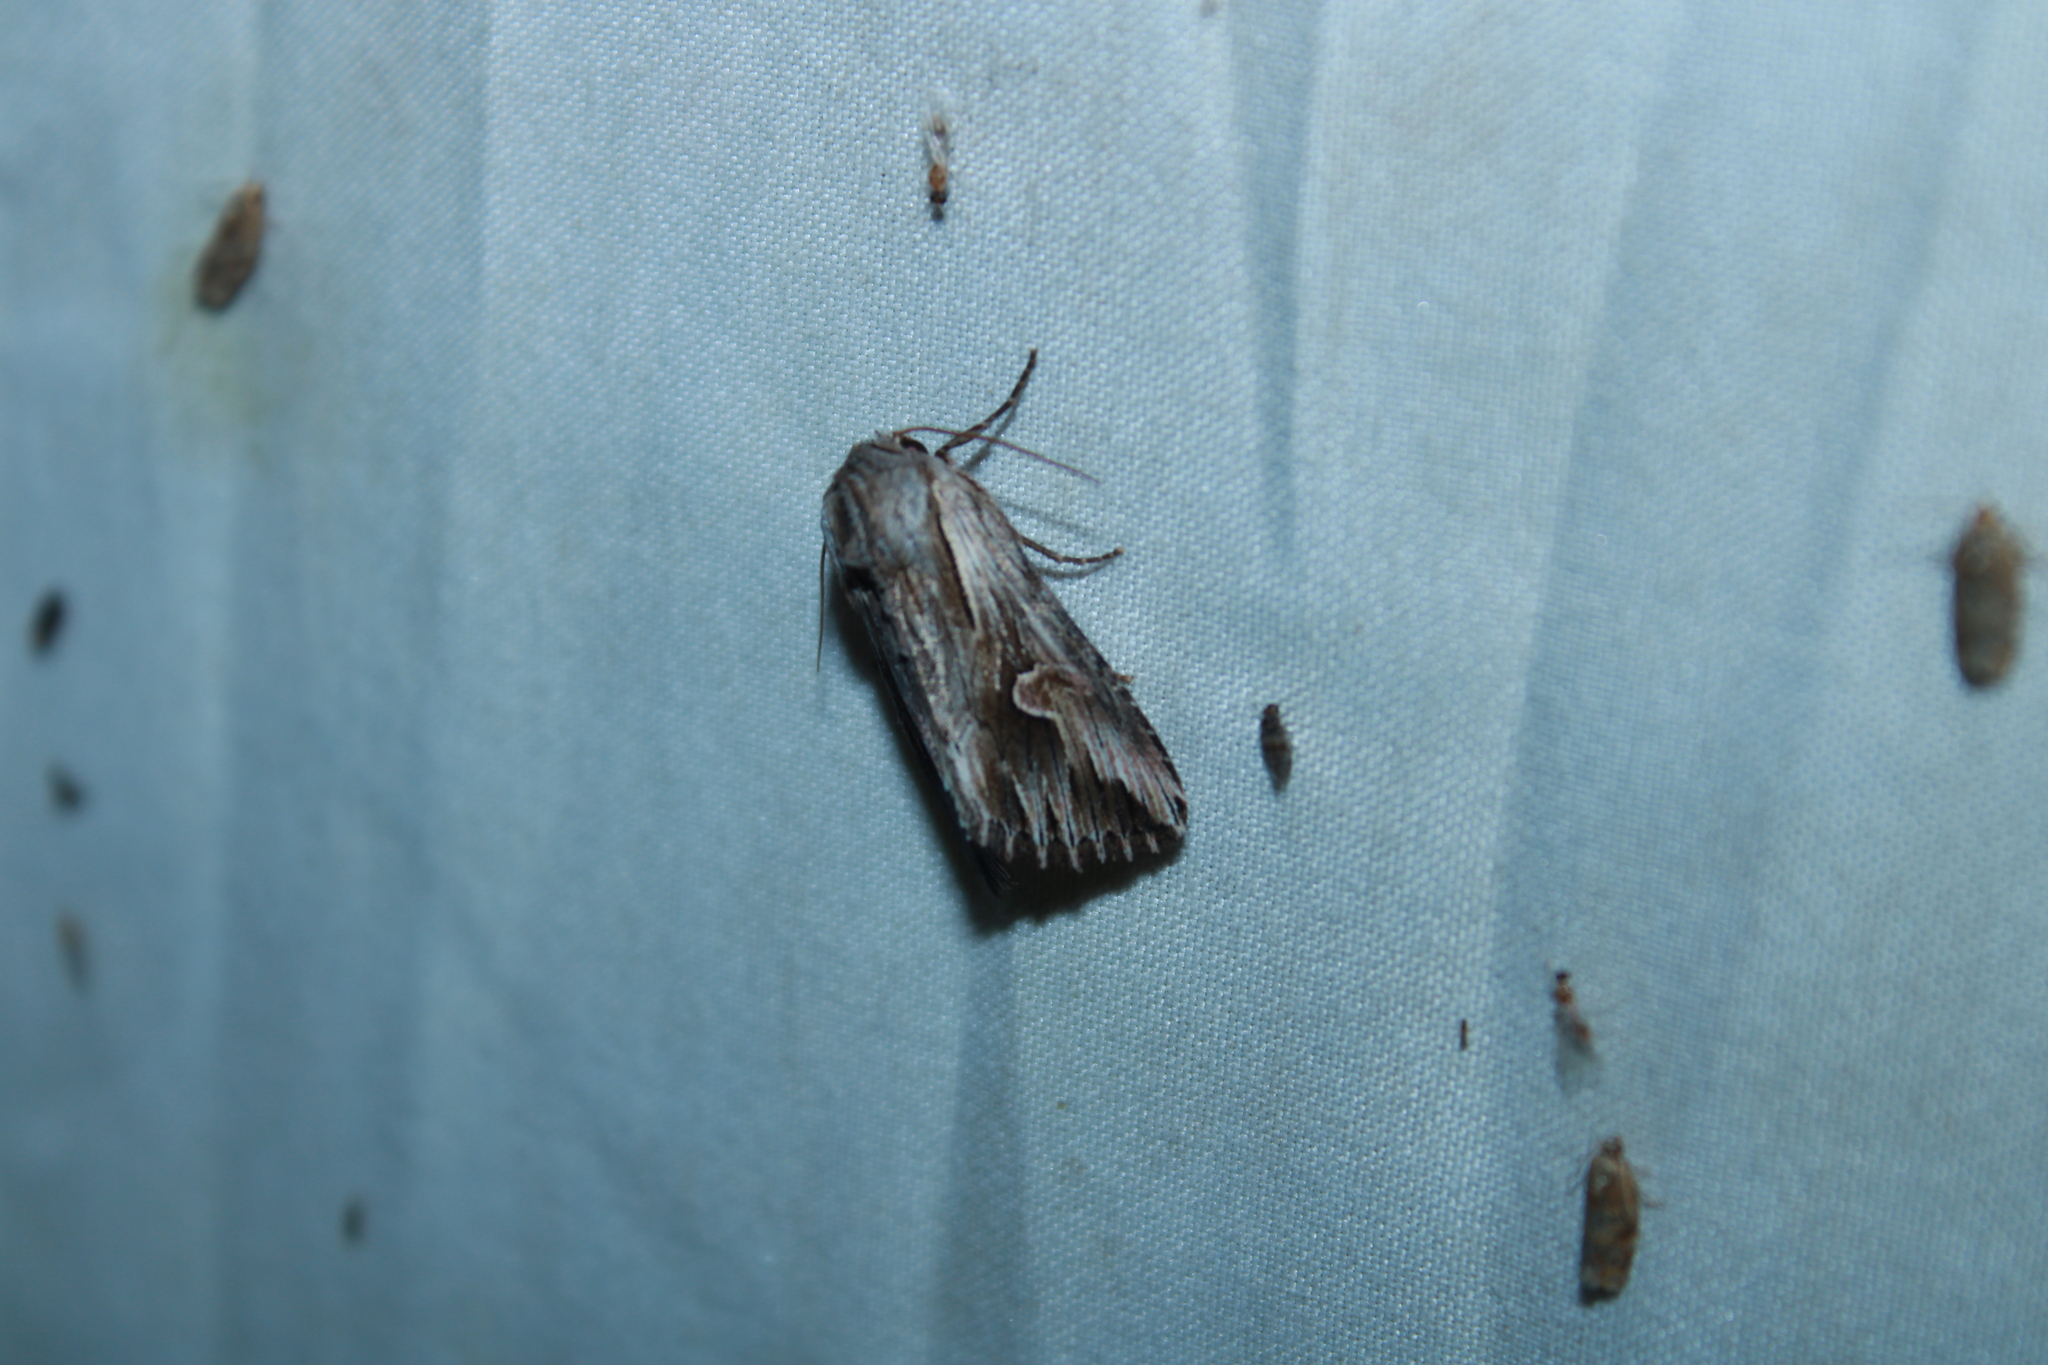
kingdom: Animalia
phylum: Arthropoda
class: Insecta
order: Lepidoptera
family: Noctuidae
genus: Nedra
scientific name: Nedra ramosula
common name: Gray half-spot
